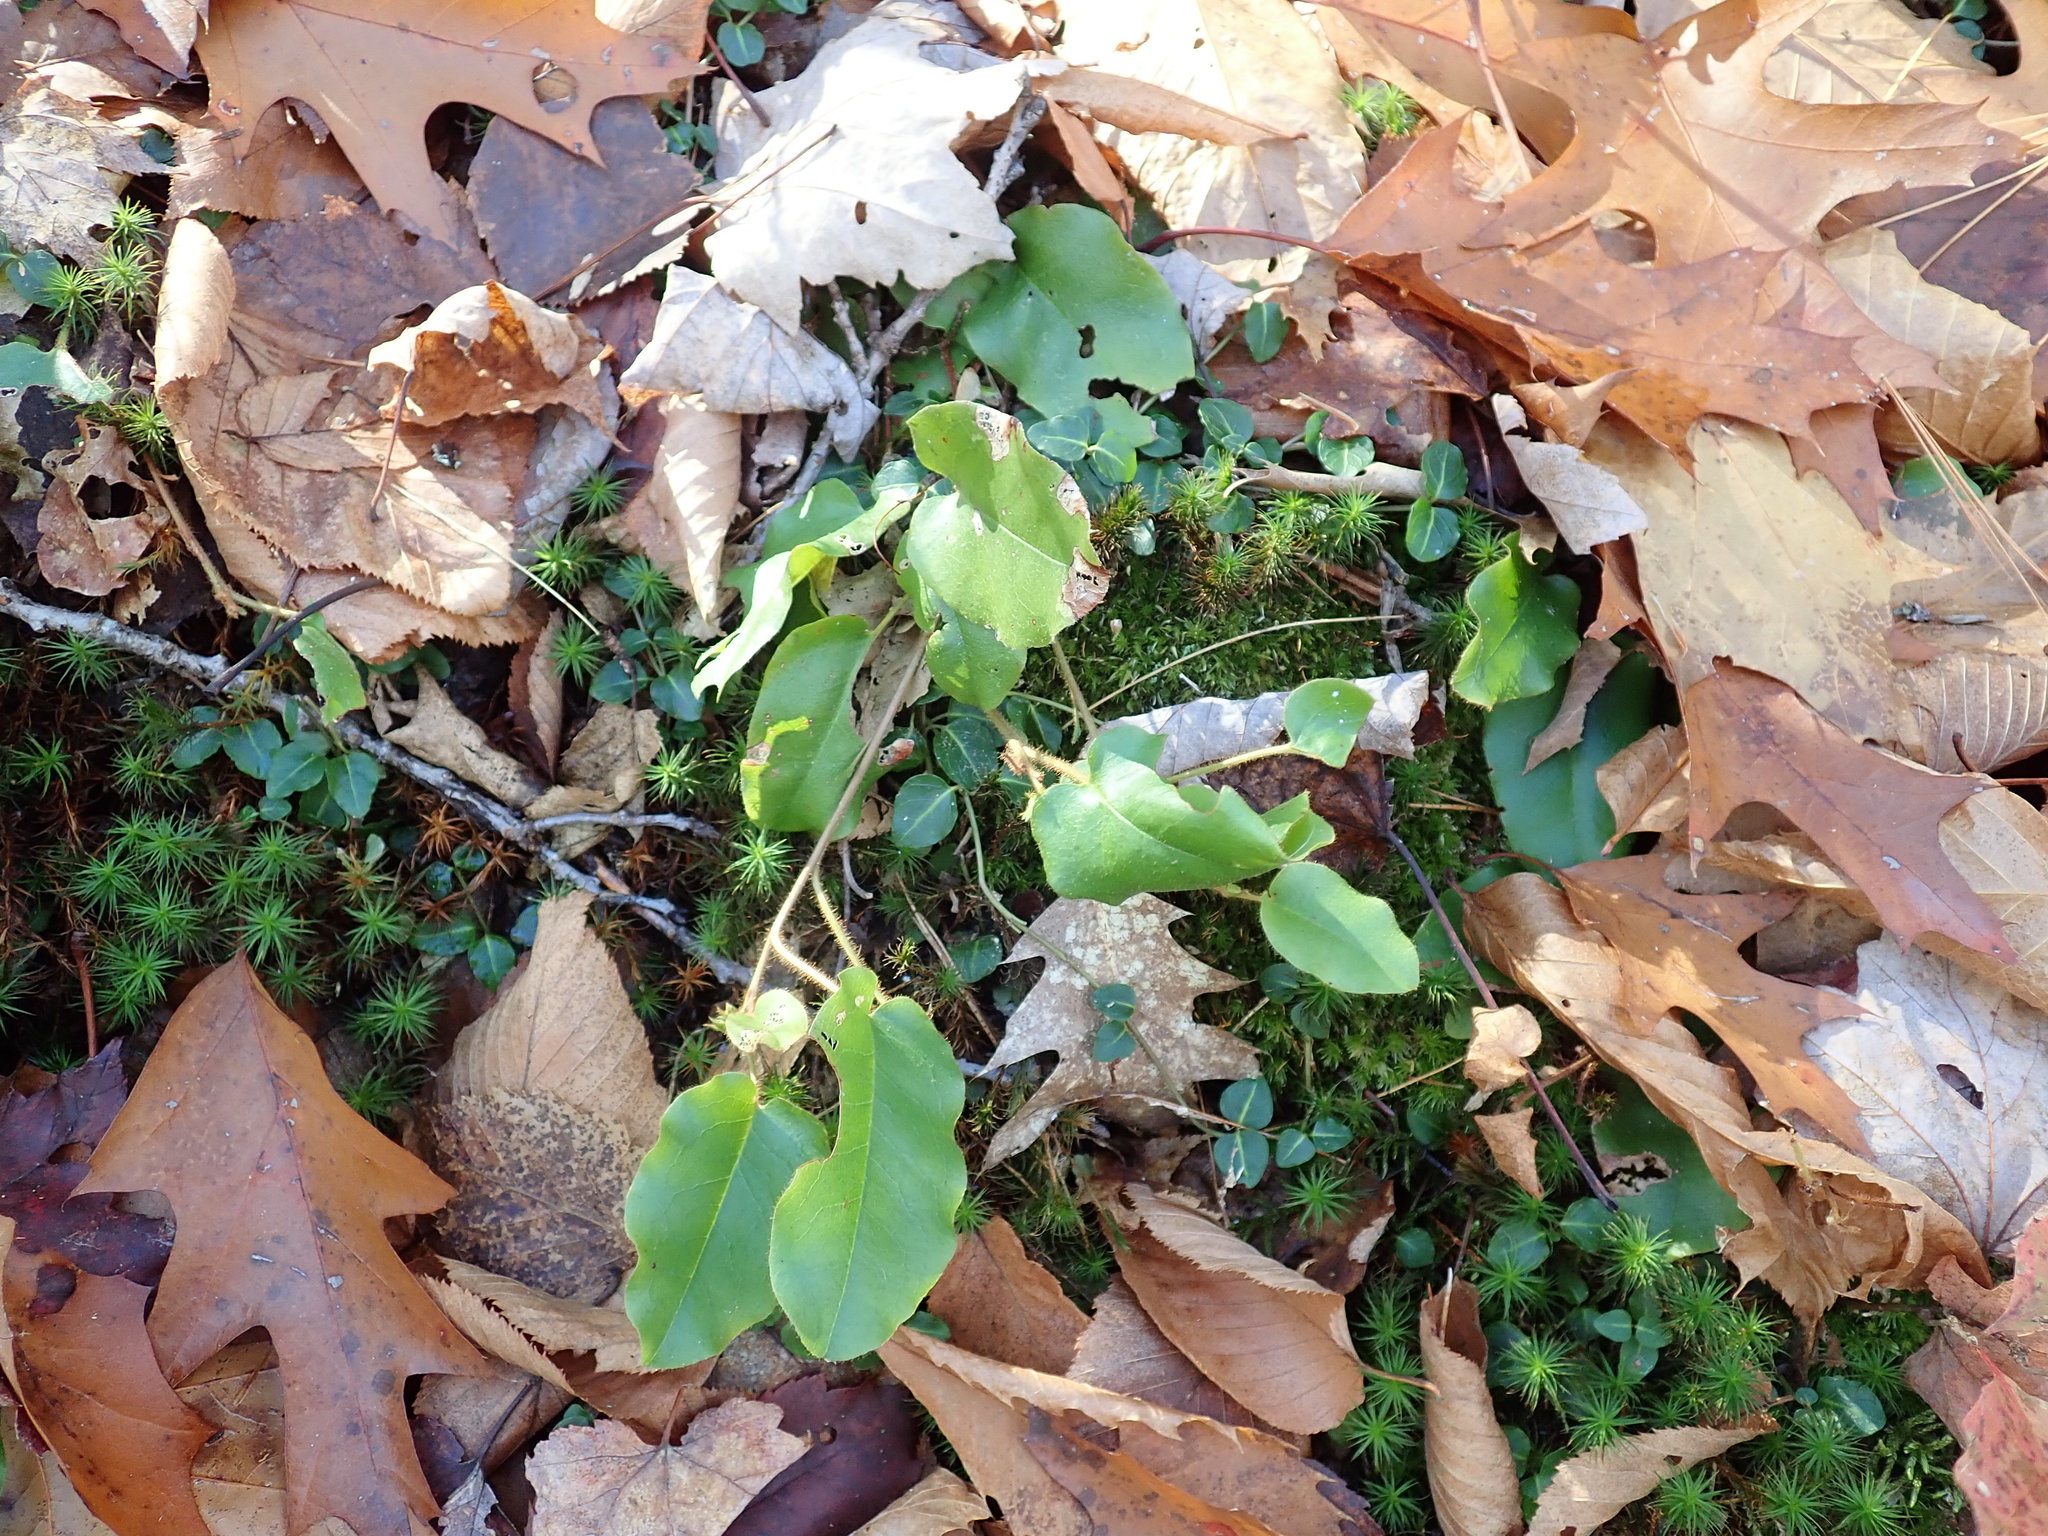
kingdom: Plantae
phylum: Tracheophyta
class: Magnoliopsida
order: Ericales
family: Ericaceae
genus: Epigaea
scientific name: Epigaea repens
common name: Gravelroot
